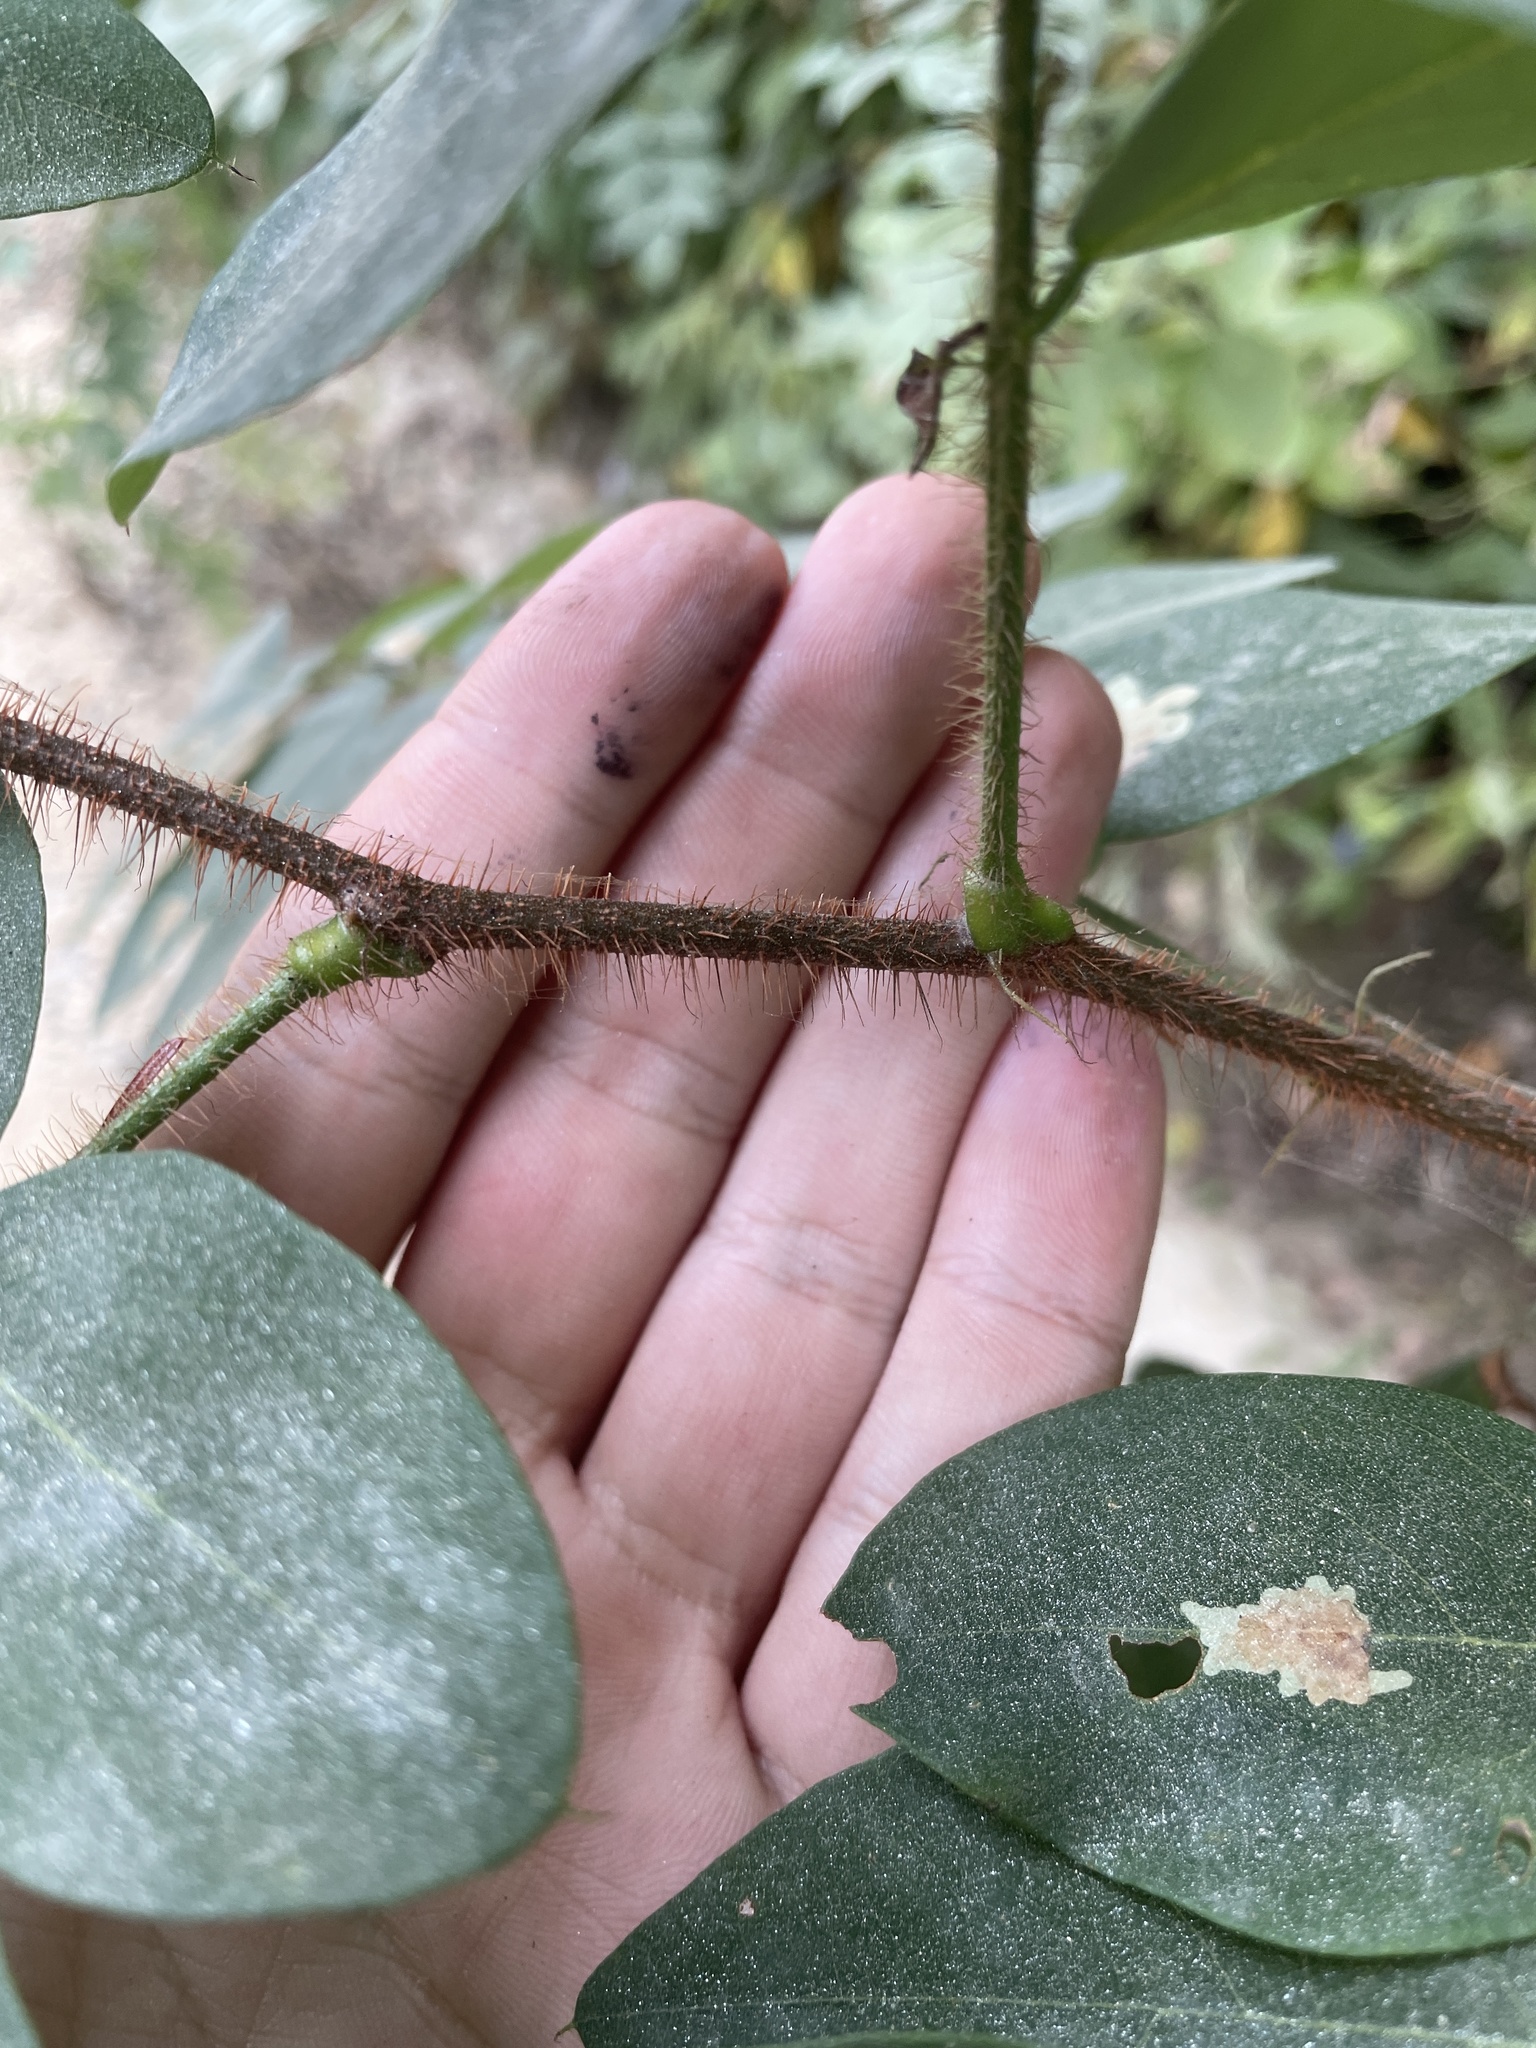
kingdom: Plantae
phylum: Tracheophyta
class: Magnoliopsida
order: Fabales
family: Fabaceae
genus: Robinia
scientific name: Robinia hispida
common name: Bristly locust
